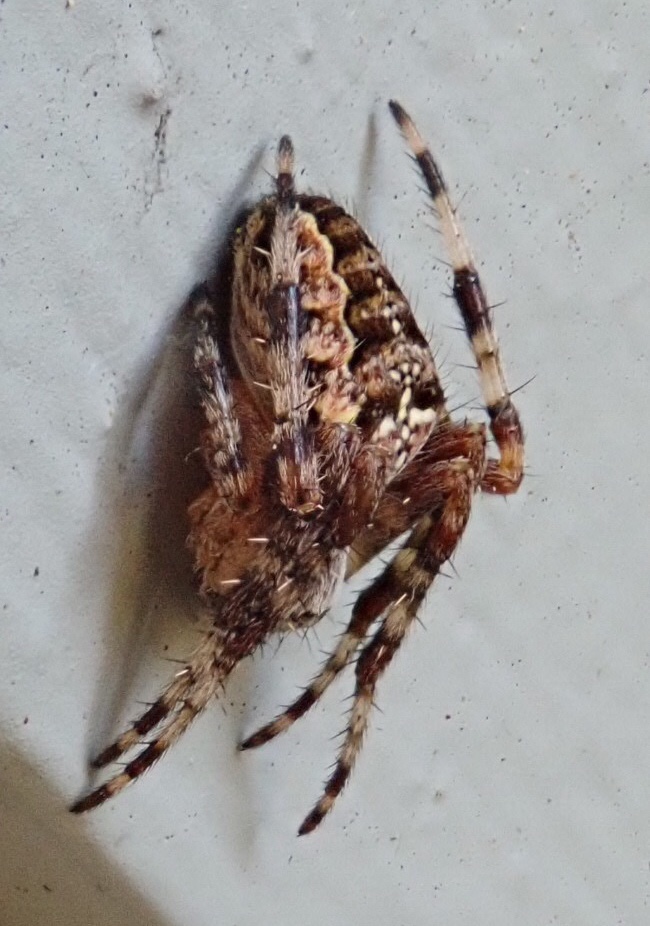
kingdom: Animalia
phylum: Arthropoda
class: Arachnida
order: Araneae
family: Araneidae
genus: Araneus
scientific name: Araneus diadematus
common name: Cross orbweaver
